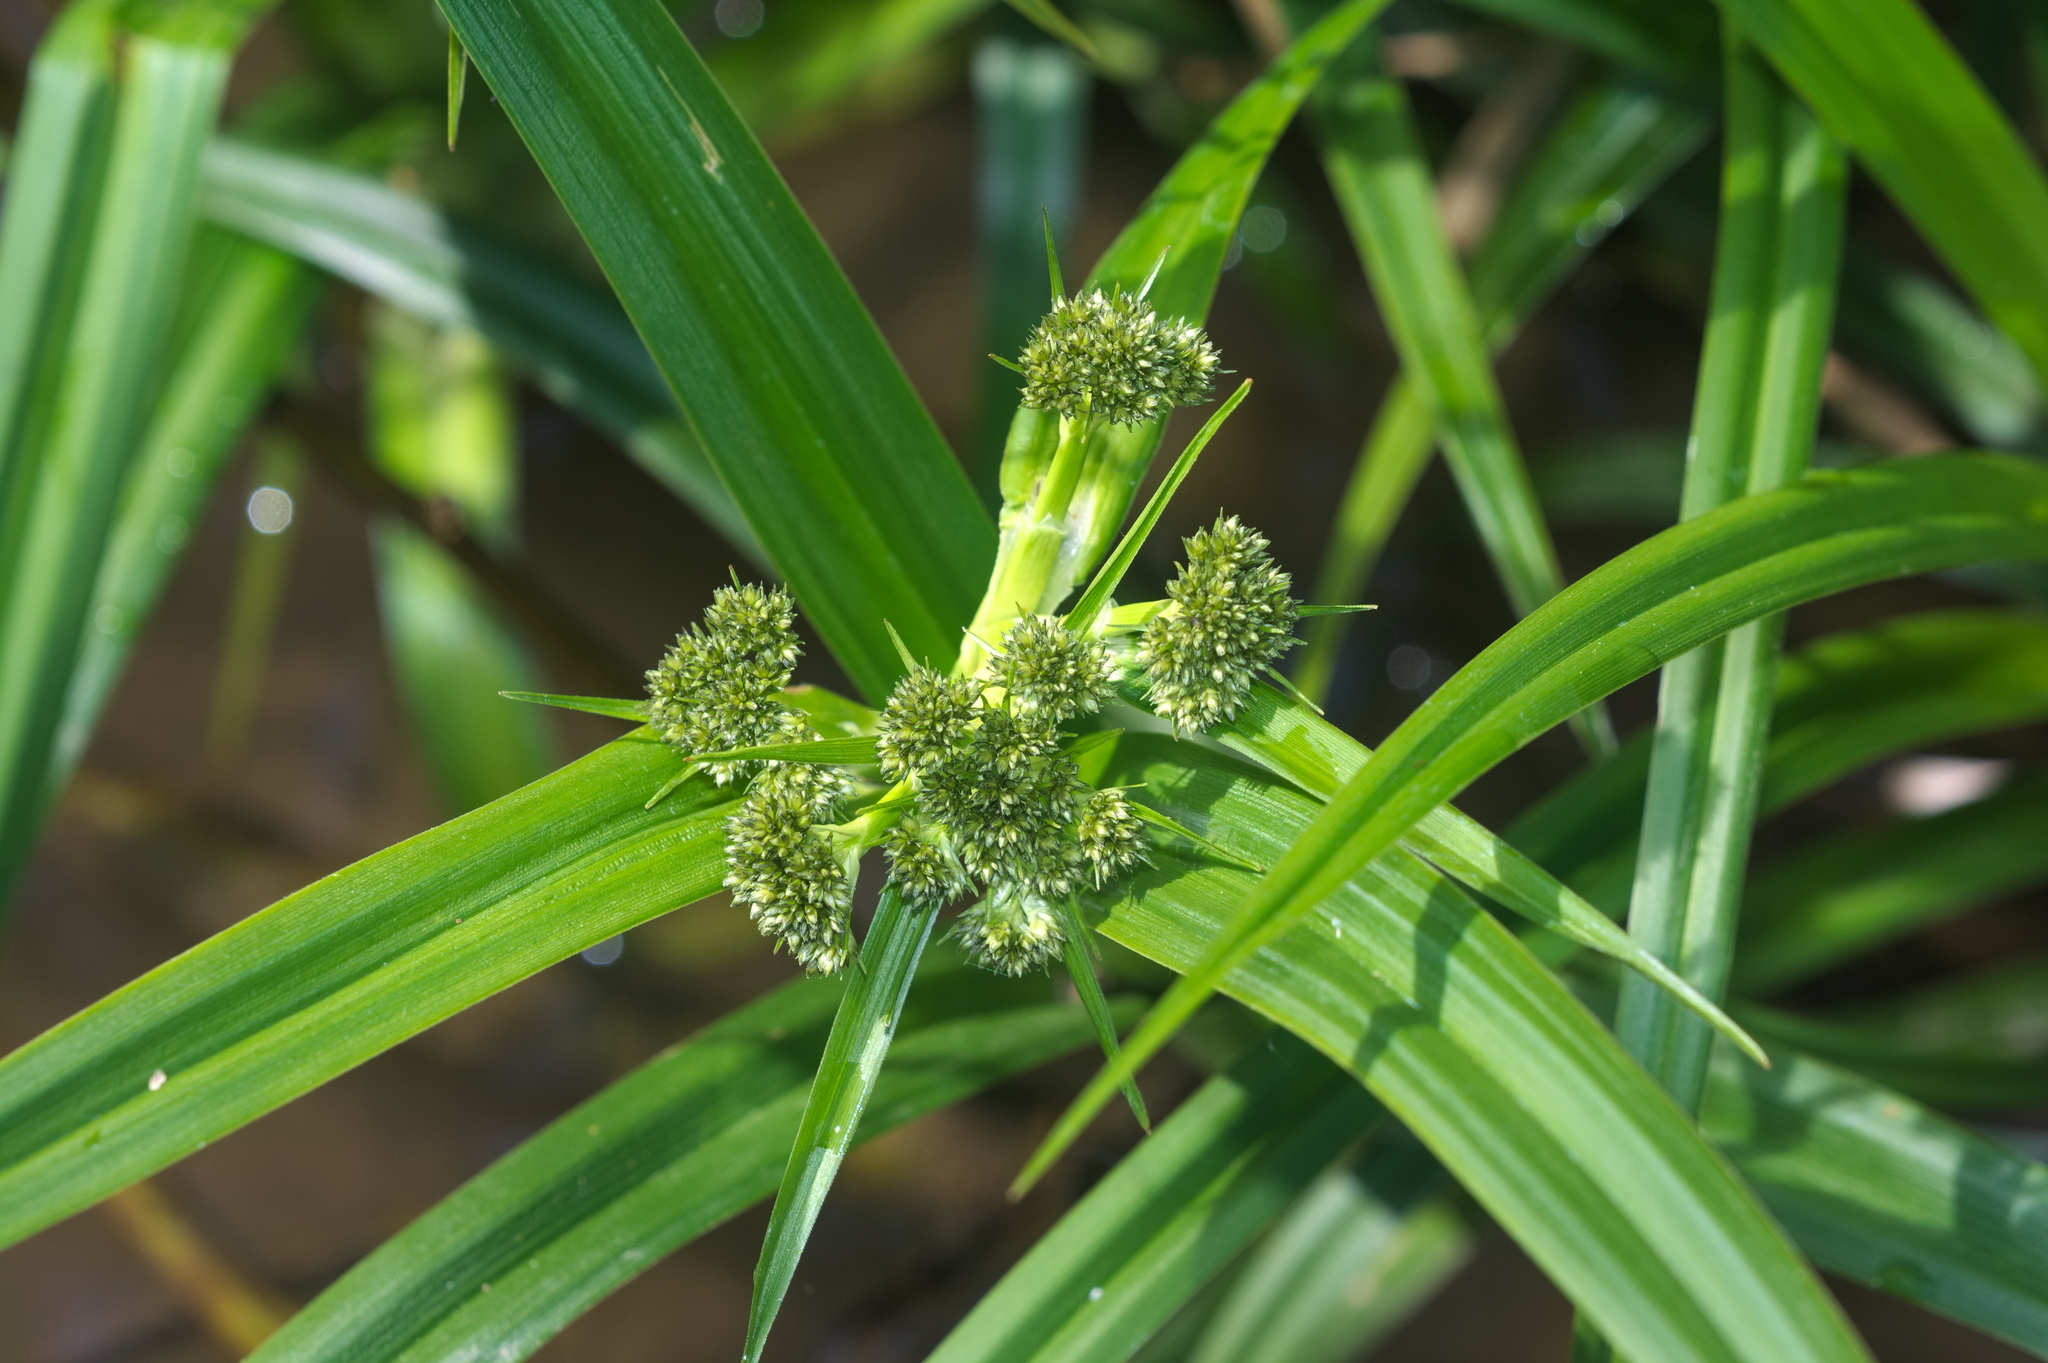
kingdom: Plantae
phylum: Tracheophyta
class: Liliopsida
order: Poales
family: Cyperaceae
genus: Scirpus
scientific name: Scirpus sylvaticus
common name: Wood club-rush
